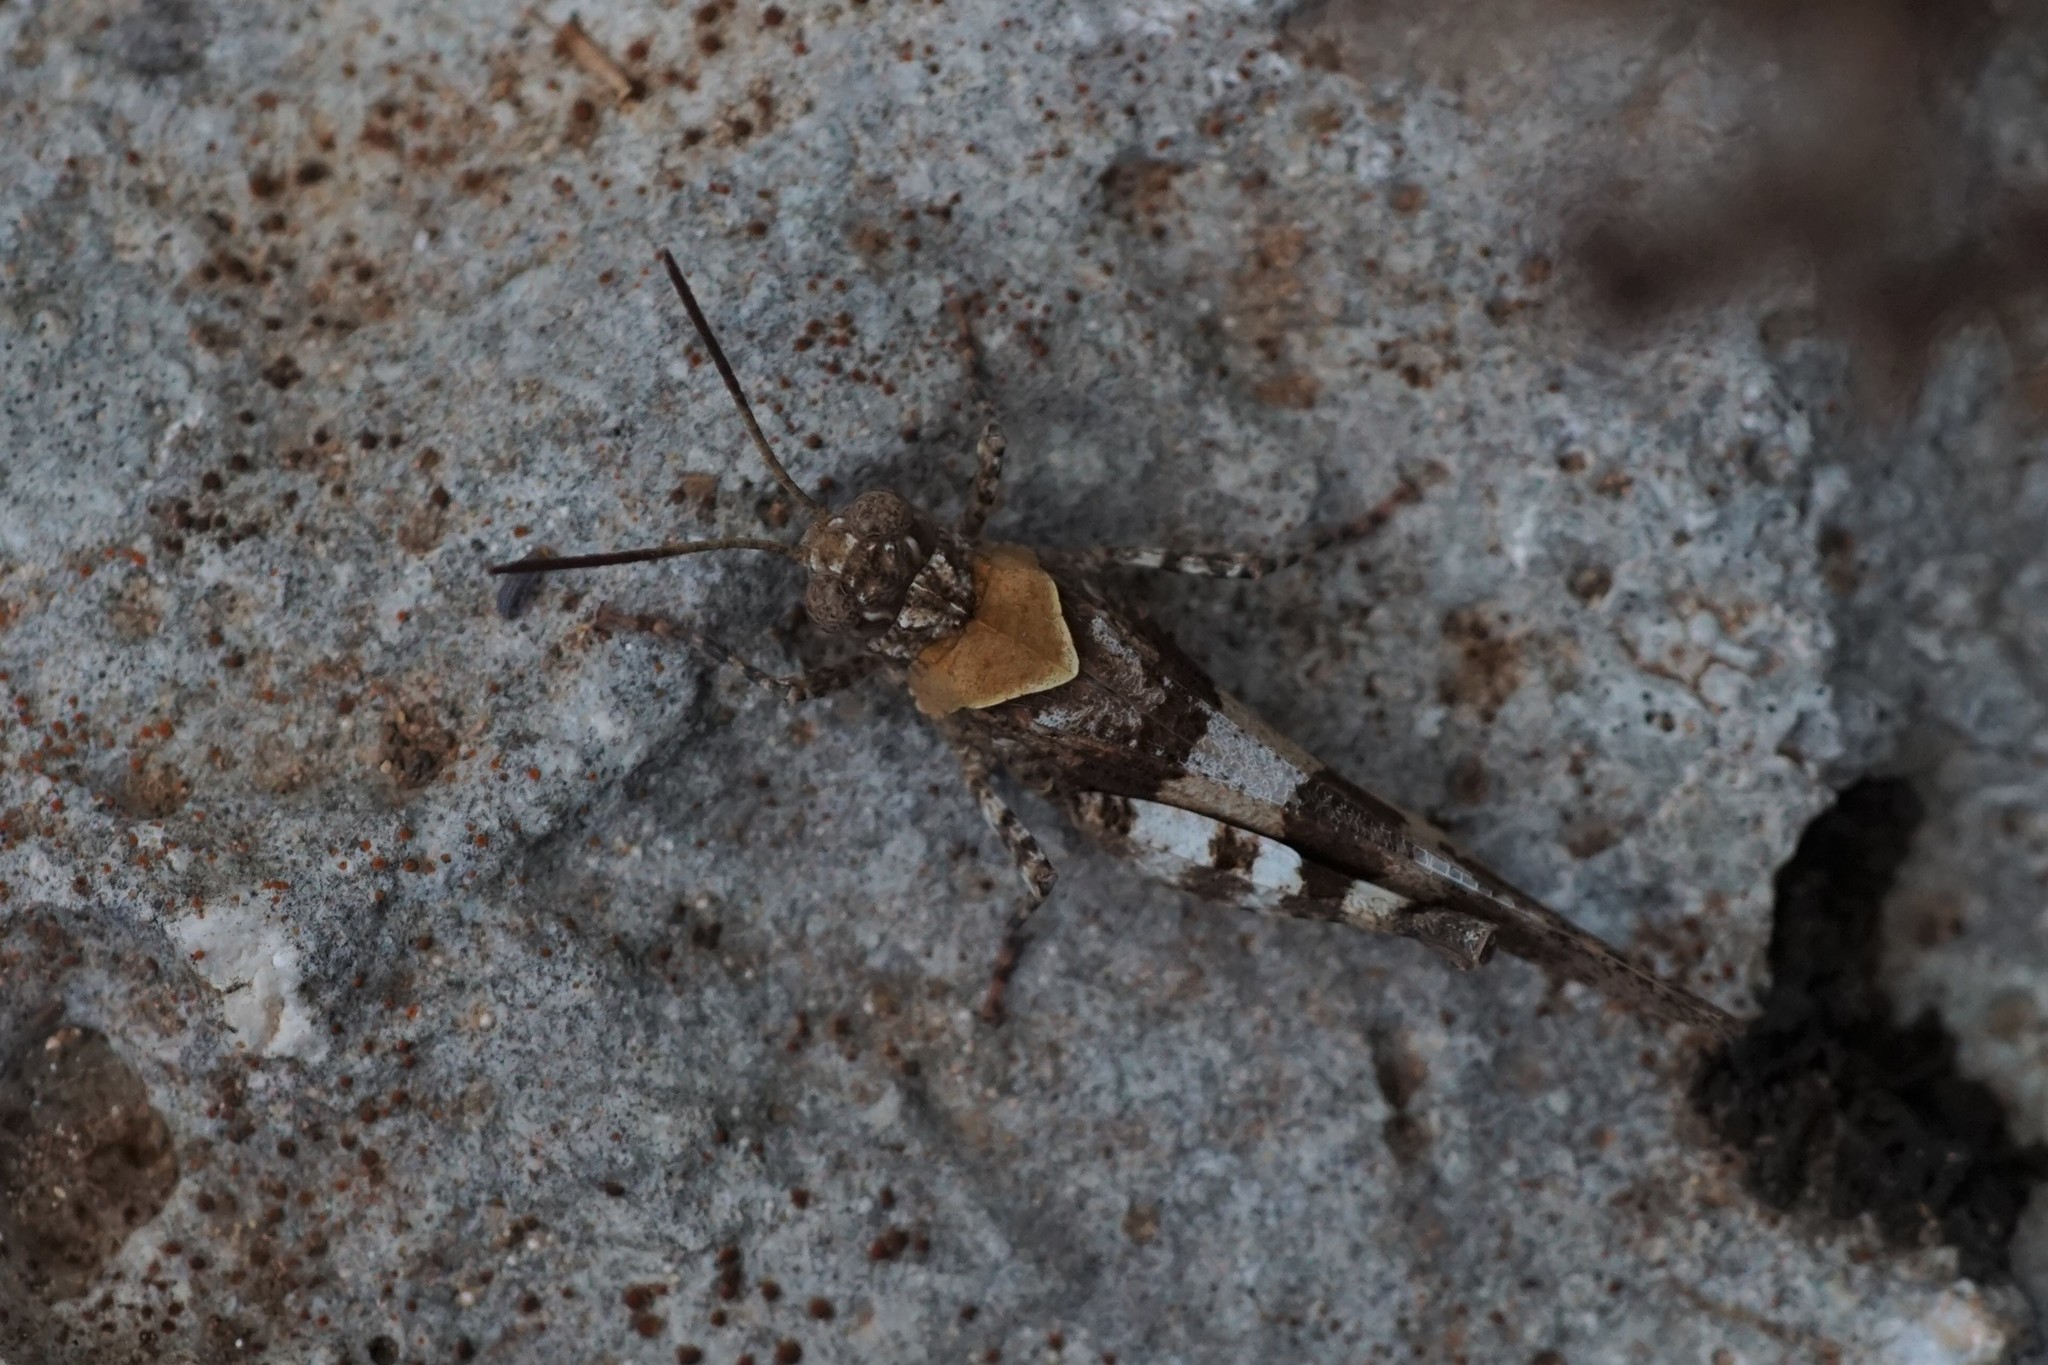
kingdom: Animalia
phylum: Arthropoda
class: Insecta
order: Orthoptera
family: Acrididae
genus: Oedipoda
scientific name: Oedipoda caerulescens
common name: Blue-winged grasshopper
